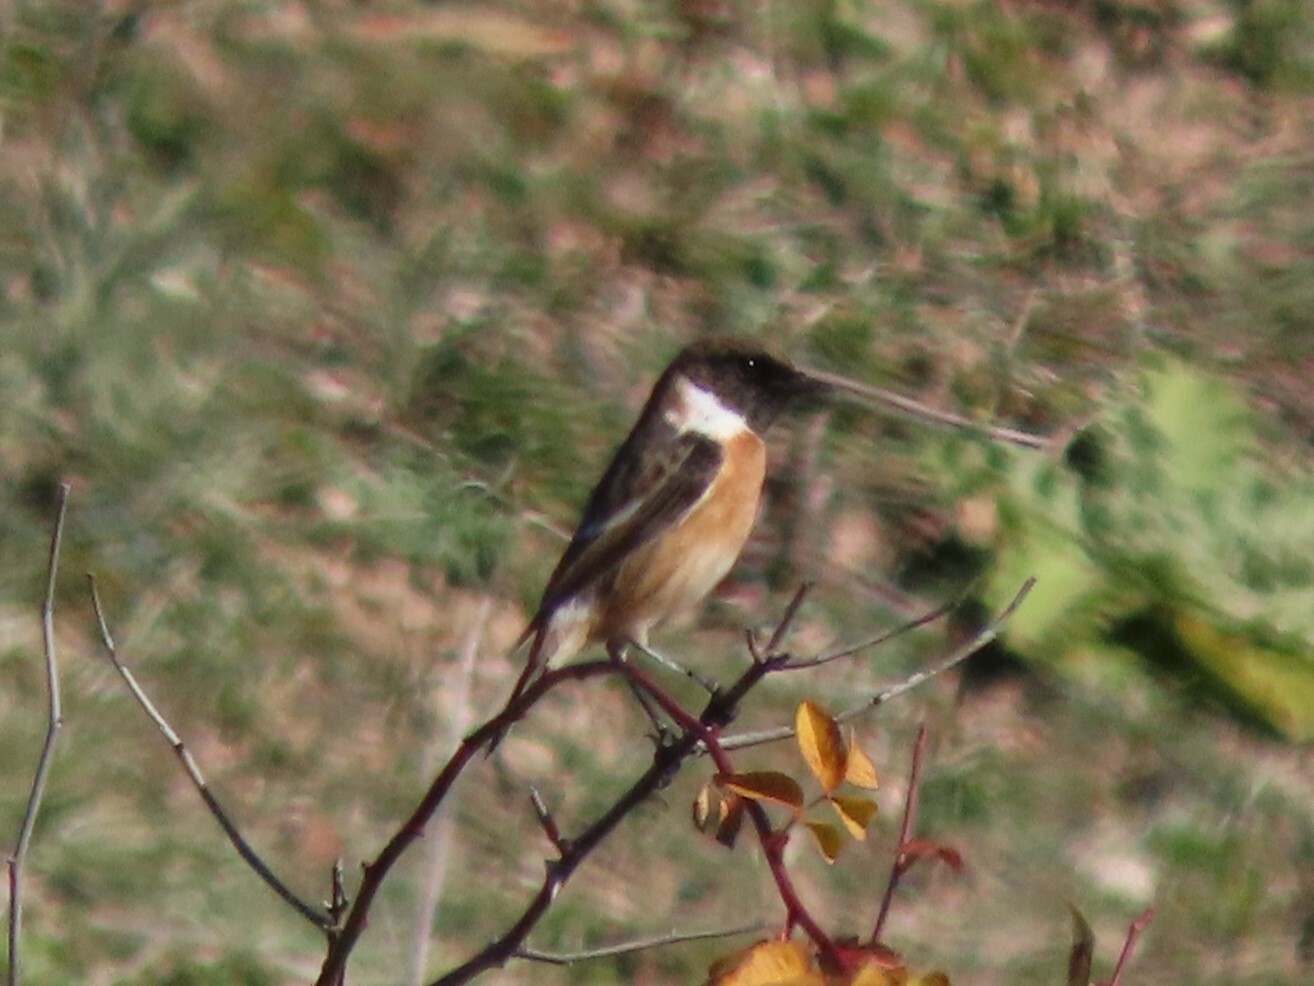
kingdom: Animalia
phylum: Chordata
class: Aves
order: Passeriformes
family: Muscicapidae
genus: Saxicola
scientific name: Saxicola rubicola
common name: European stonechat
